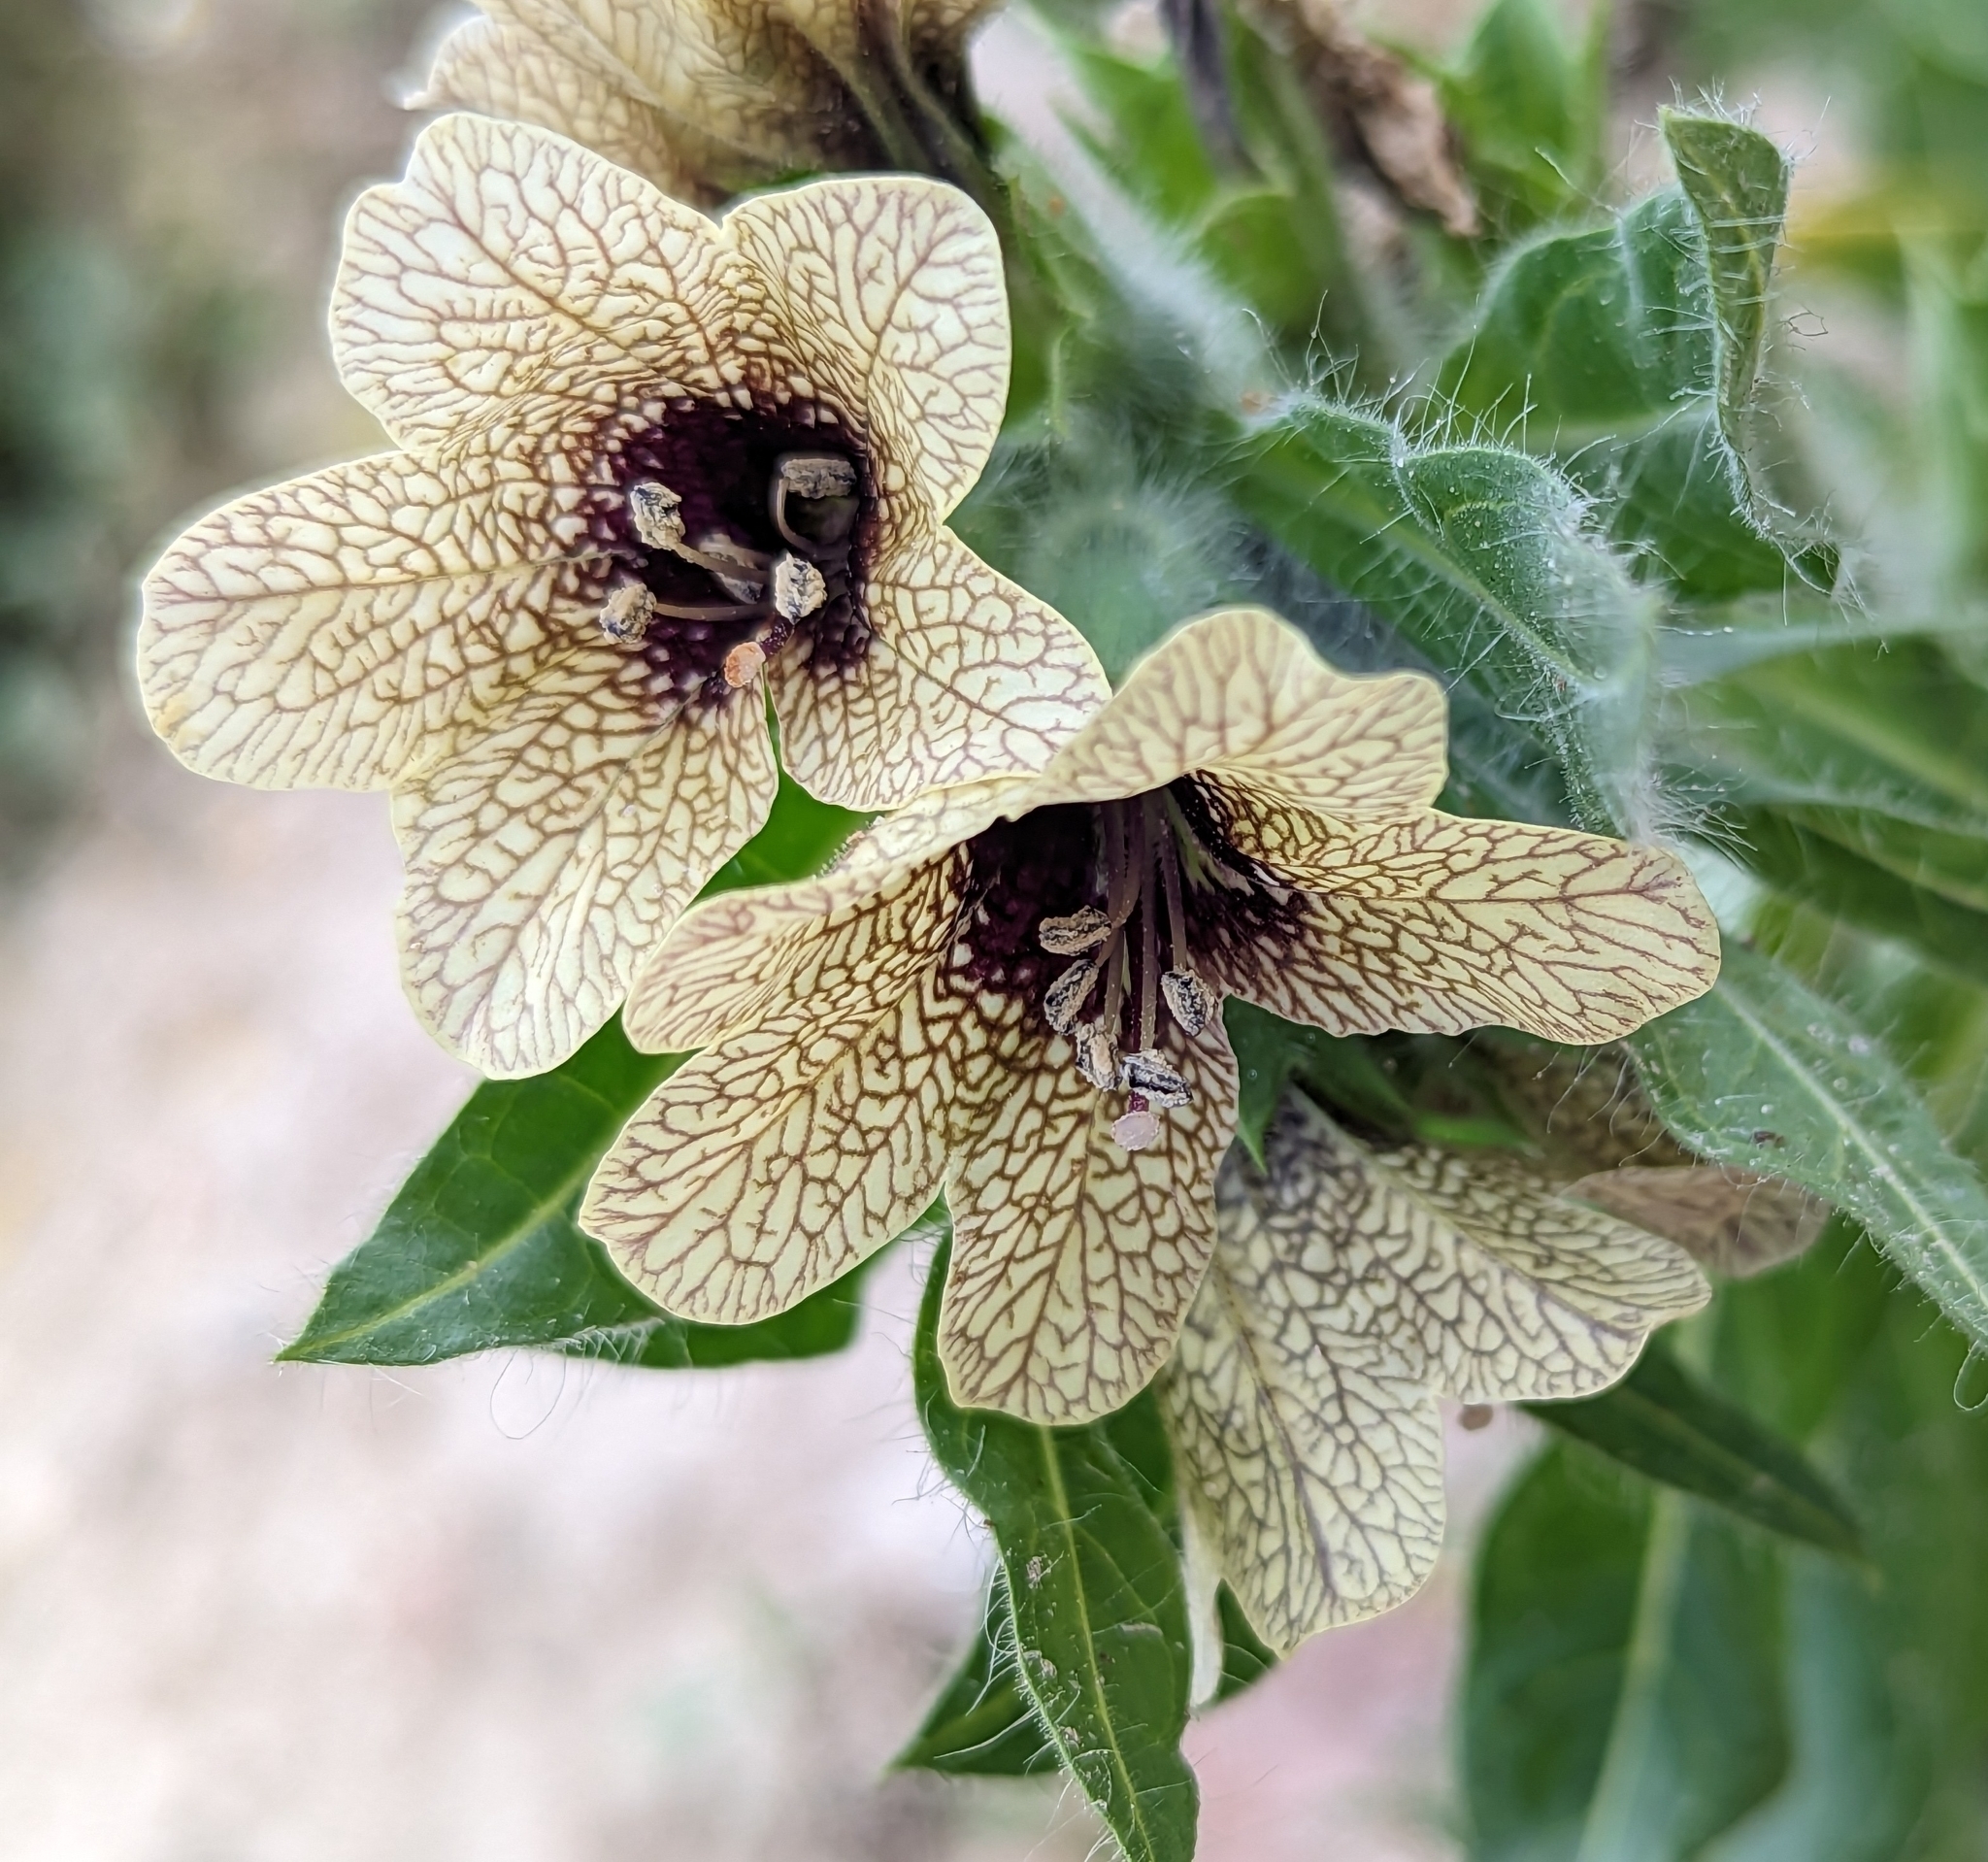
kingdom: Plantae
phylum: Tracheophyta
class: Magnoliopsida
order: Solanales
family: Solanaceae
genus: Hyoscyamus
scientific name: Hyoscyamus niger
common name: Henbane
